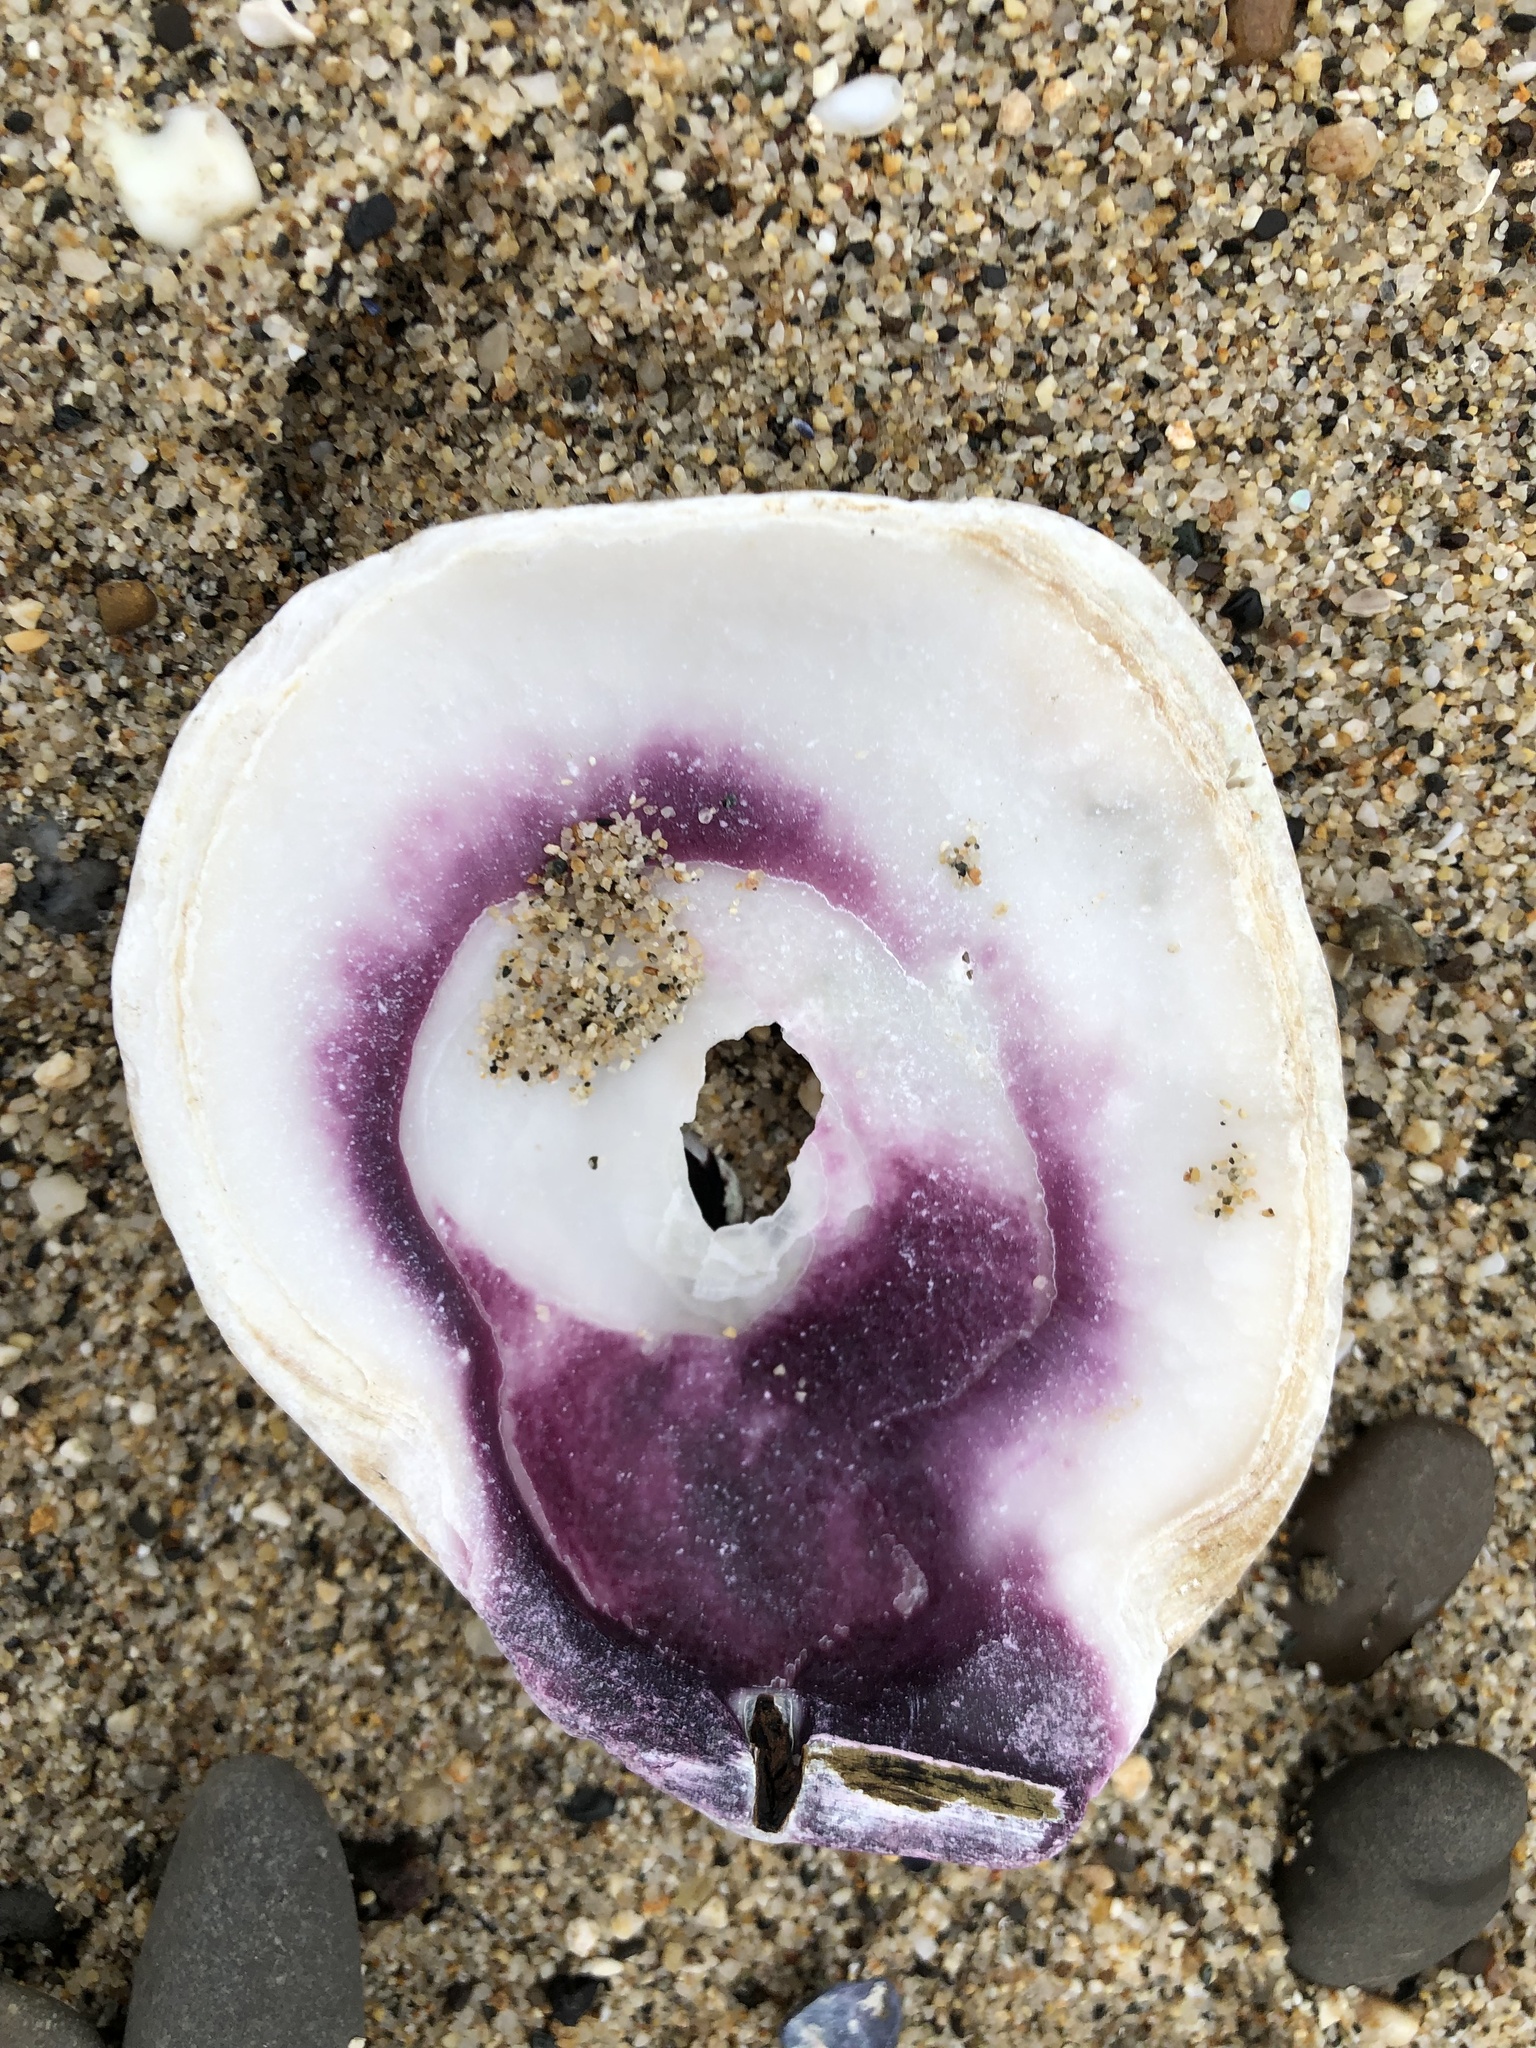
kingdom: Animalia
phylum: Mollusca
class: Bivalvia
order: Pectinida
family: Pectinidae
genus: Crassadoma
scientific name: Crassadoma gigantea
